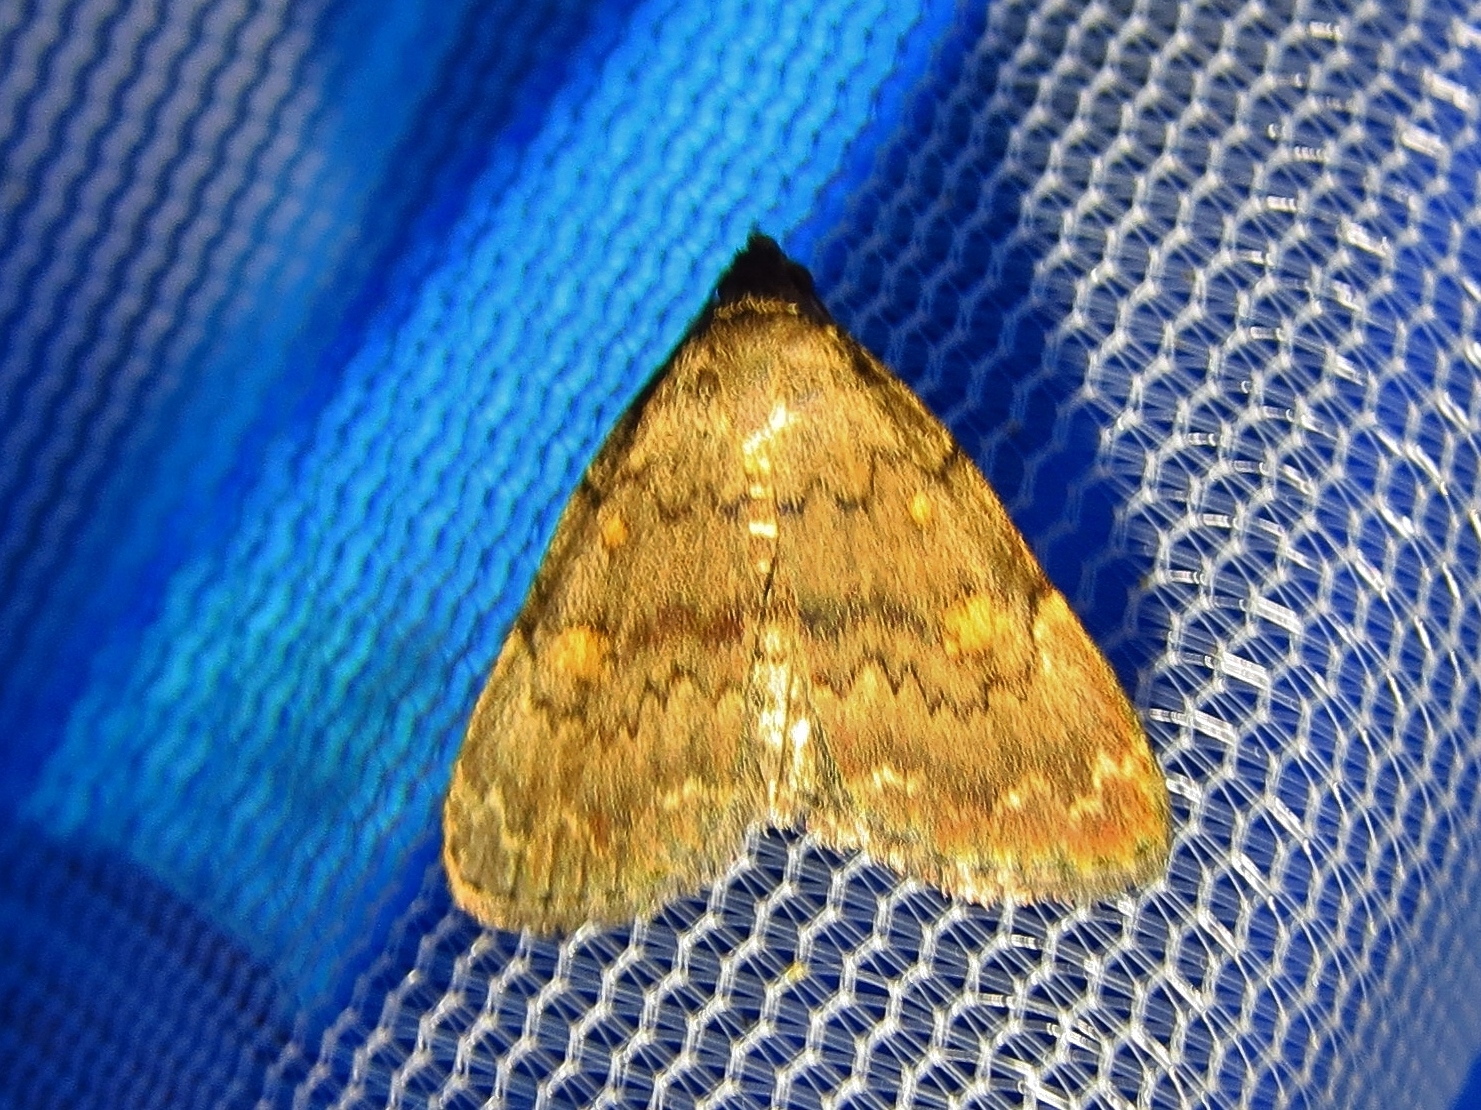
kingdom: Animalia
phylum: Arthropoda
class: Insecta
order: Lepidoptera
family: Erebidae
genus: Idia
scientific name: Idia aemula
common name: Common idia moth
